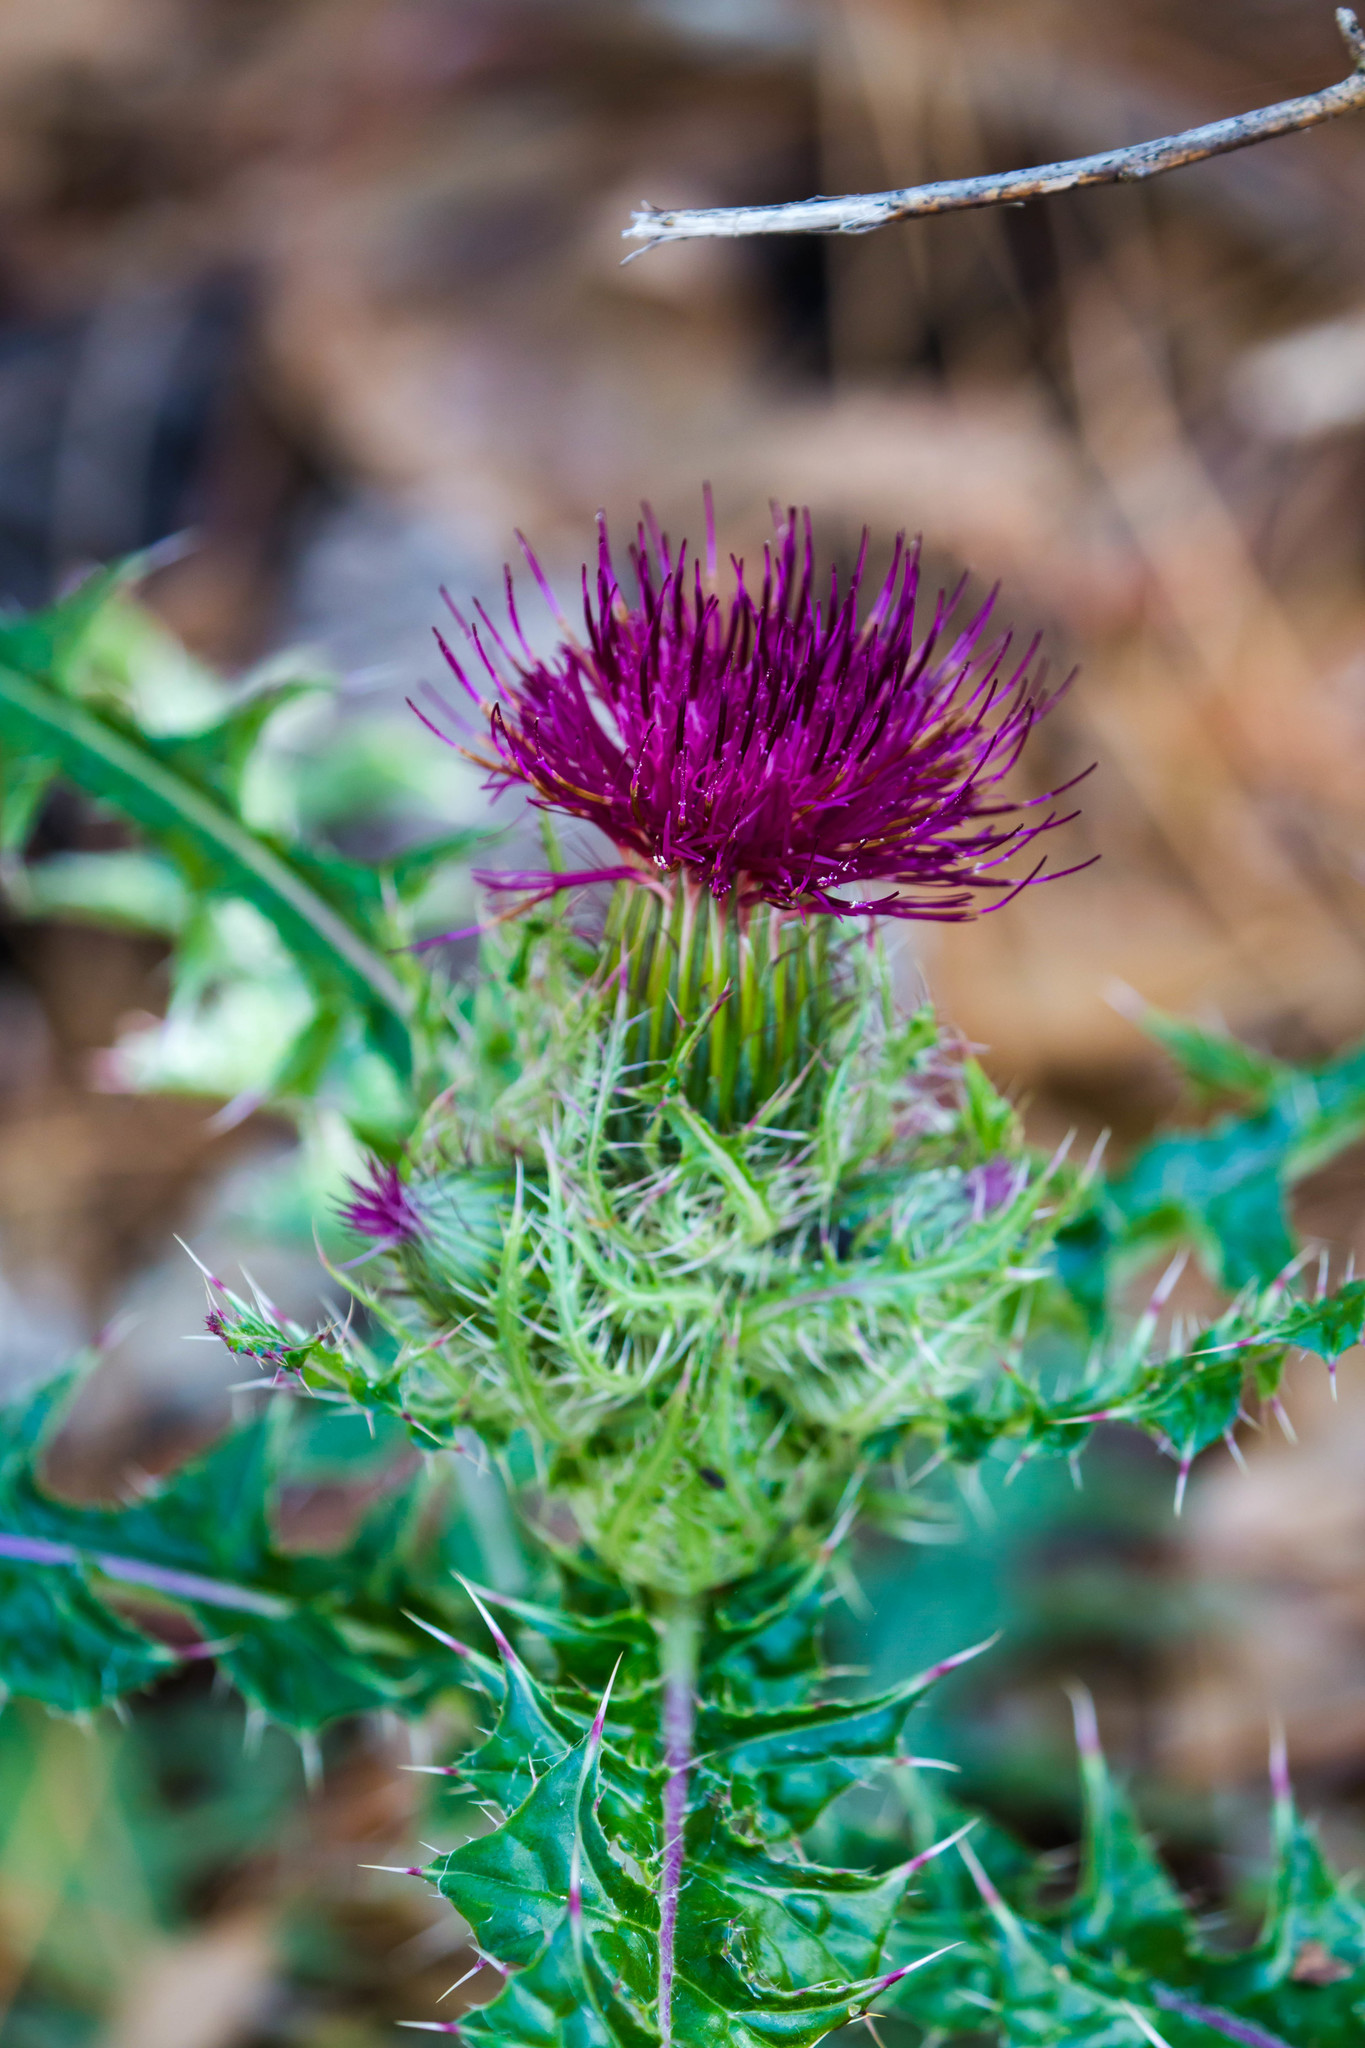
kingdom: Plantae
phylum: Tracheophyta
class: Magnoliopsida
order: Asterales
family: Asteraceae
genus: Cirsium
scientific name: Cirsium horridulum
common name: Bristly thistle
